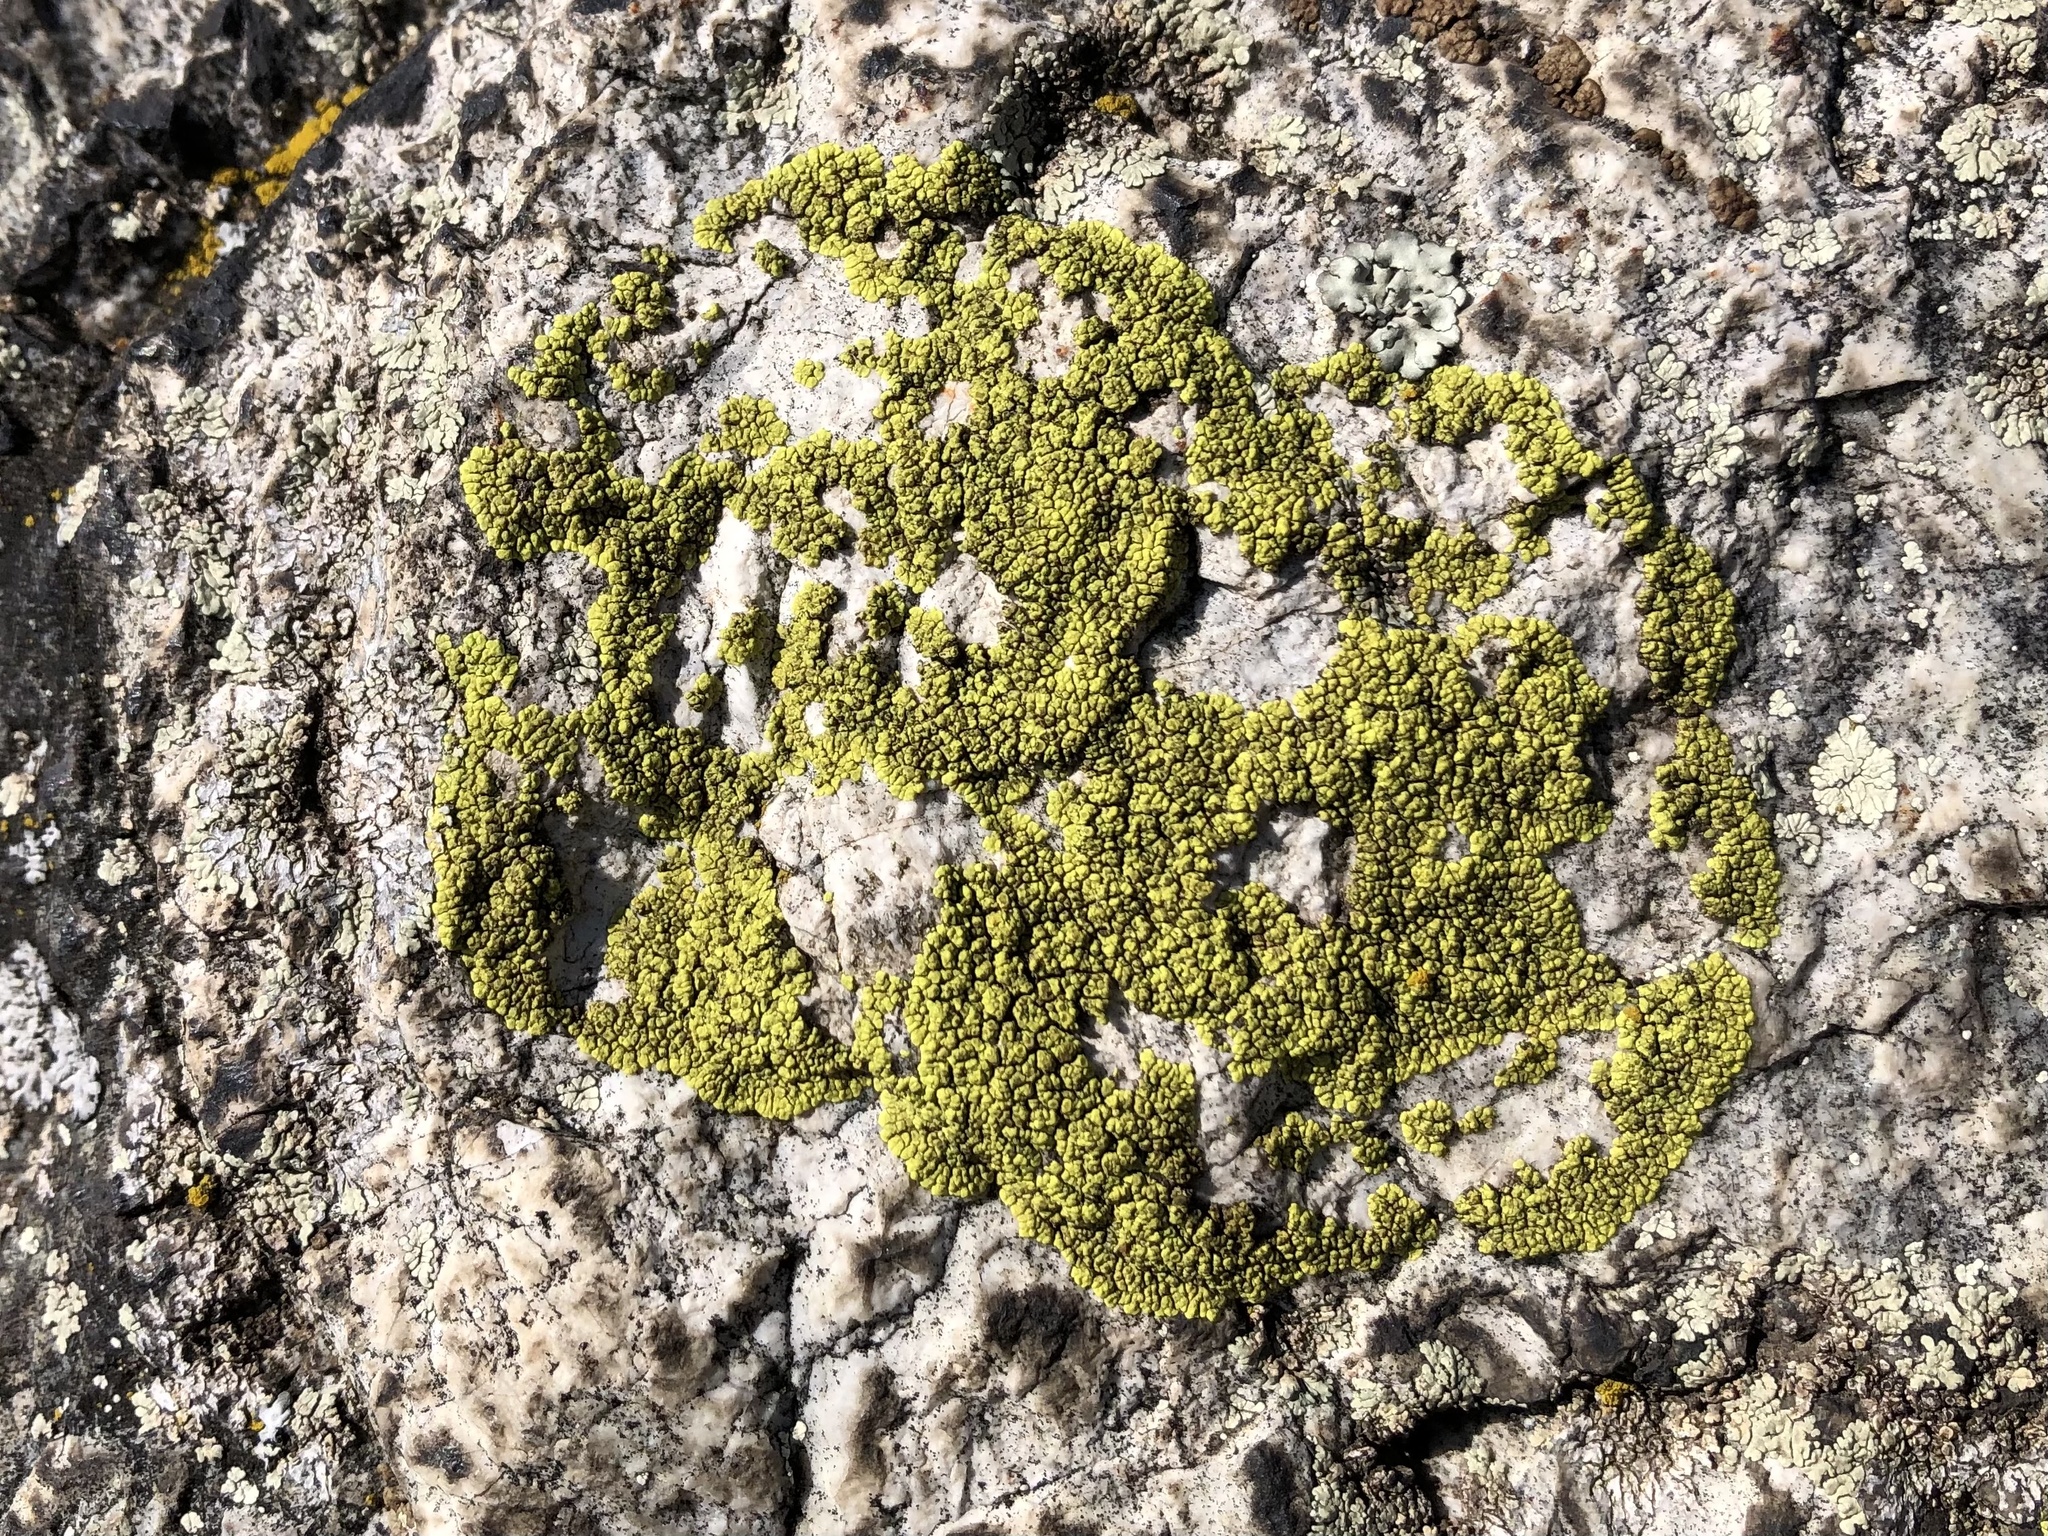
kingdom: Fungi
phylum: Ascomycota
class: Lecanoromycetes
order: Acarosporales
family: Acarosporaceae
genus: Pleopsidium
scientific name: Pleopsidium oxytonum
